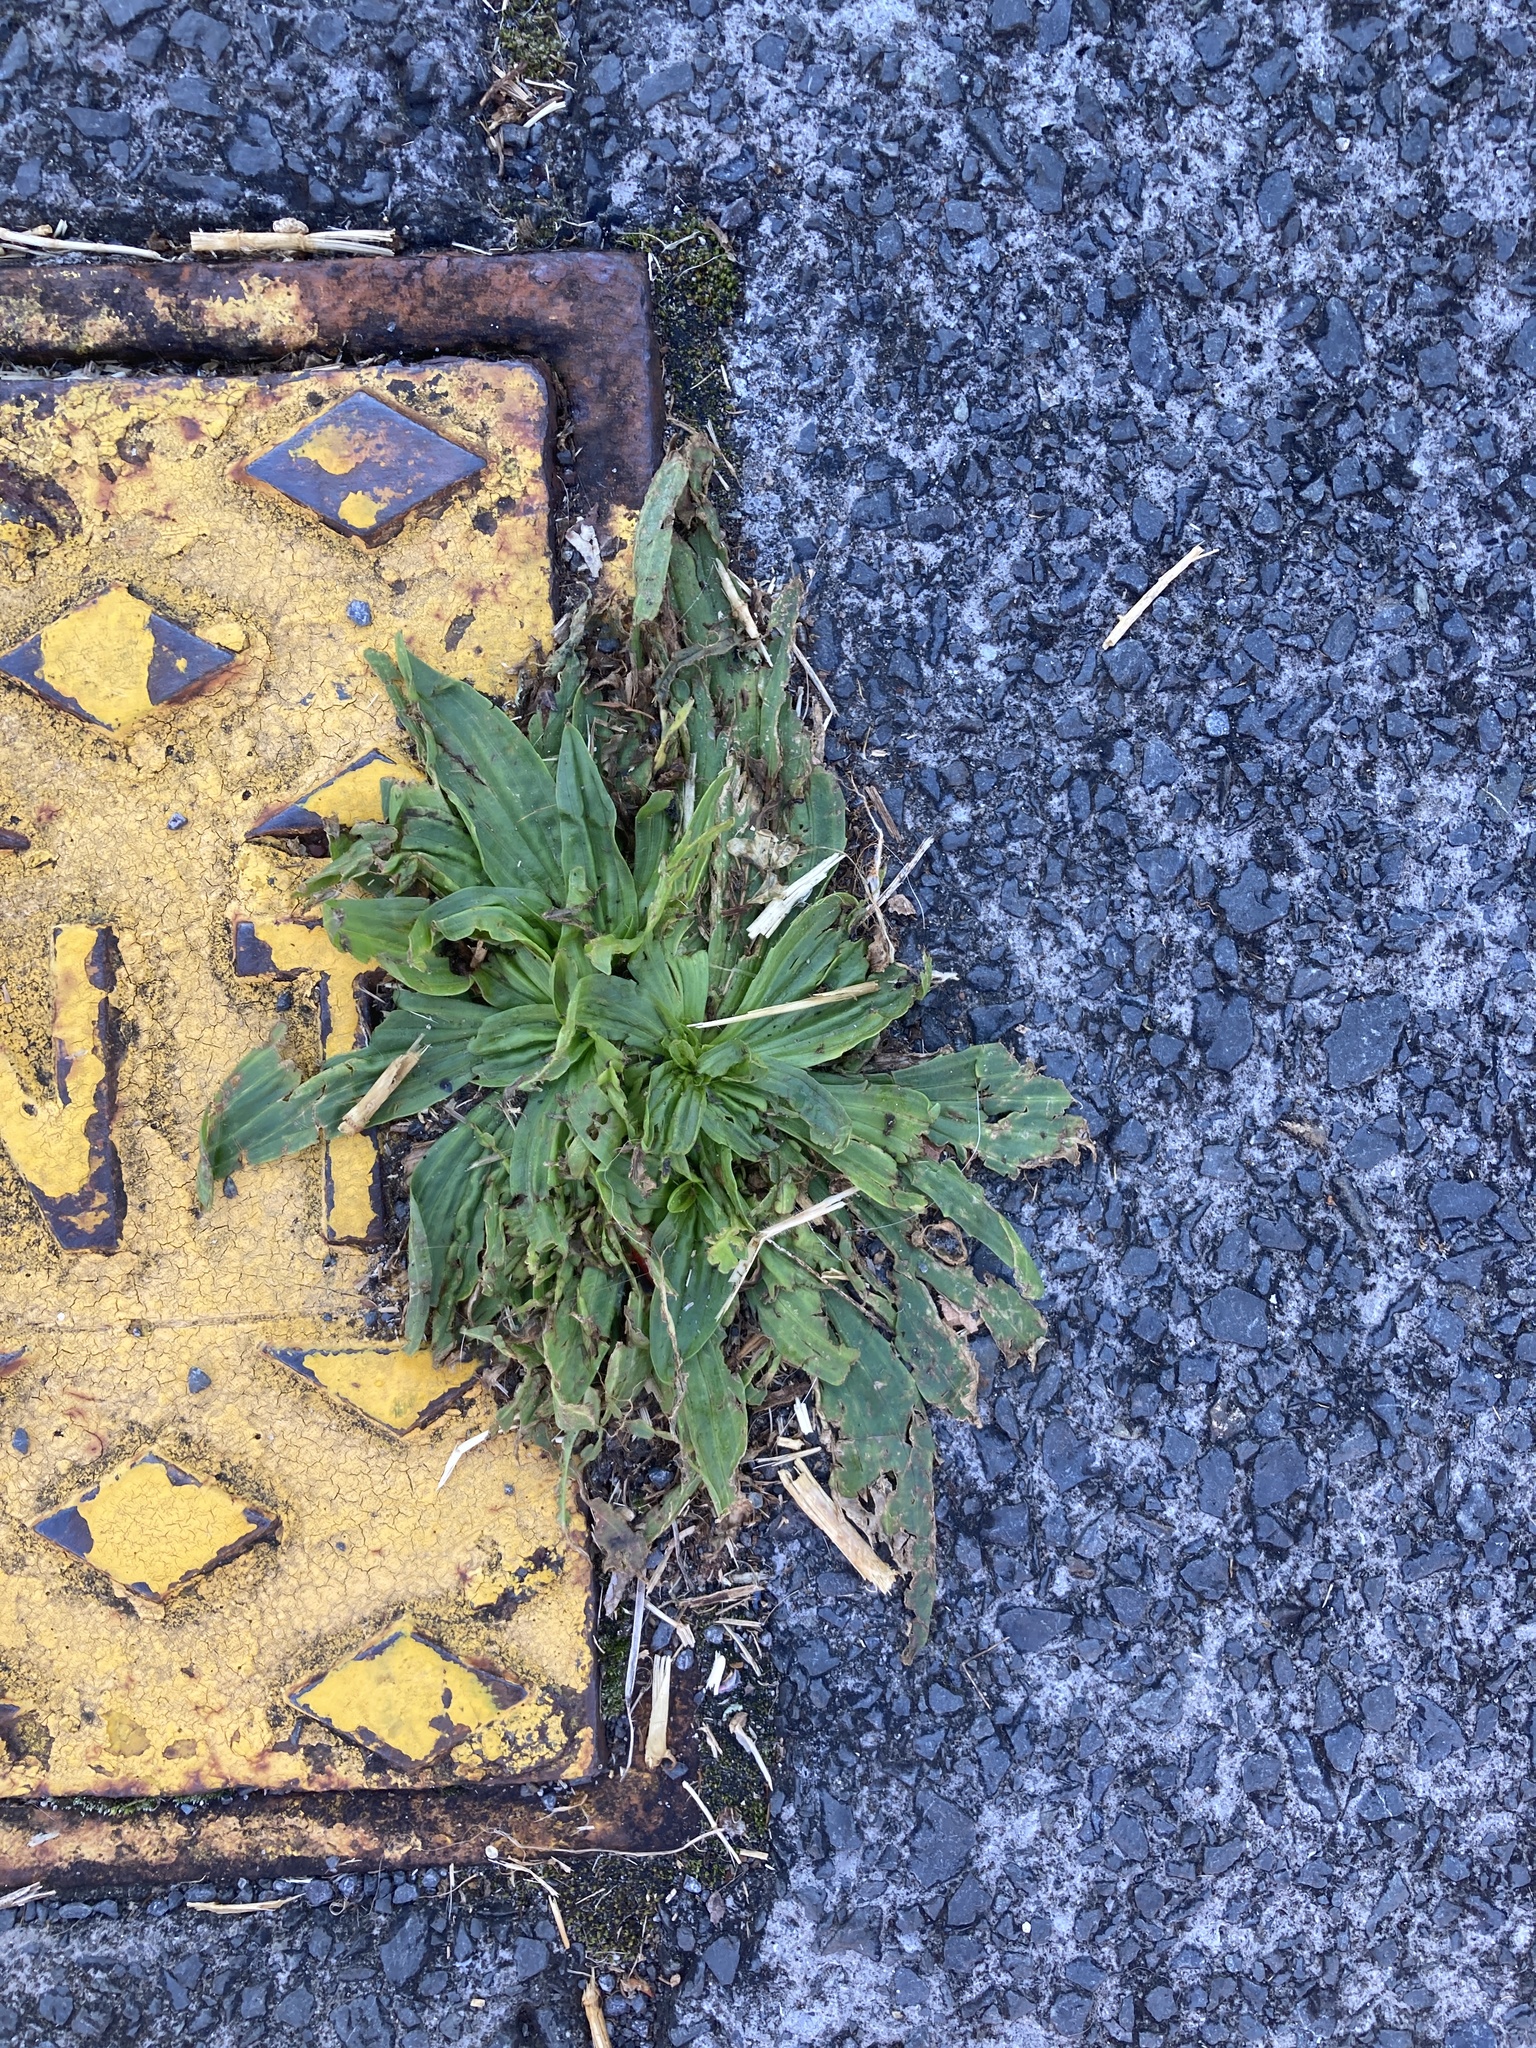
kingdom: Plantae
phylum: Tracheophyta
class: Magnoliopsida
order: Lamiales
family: Plantaginaceae
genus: Plantago
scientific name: Plantago lanceolata
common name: Ribwort plantain
